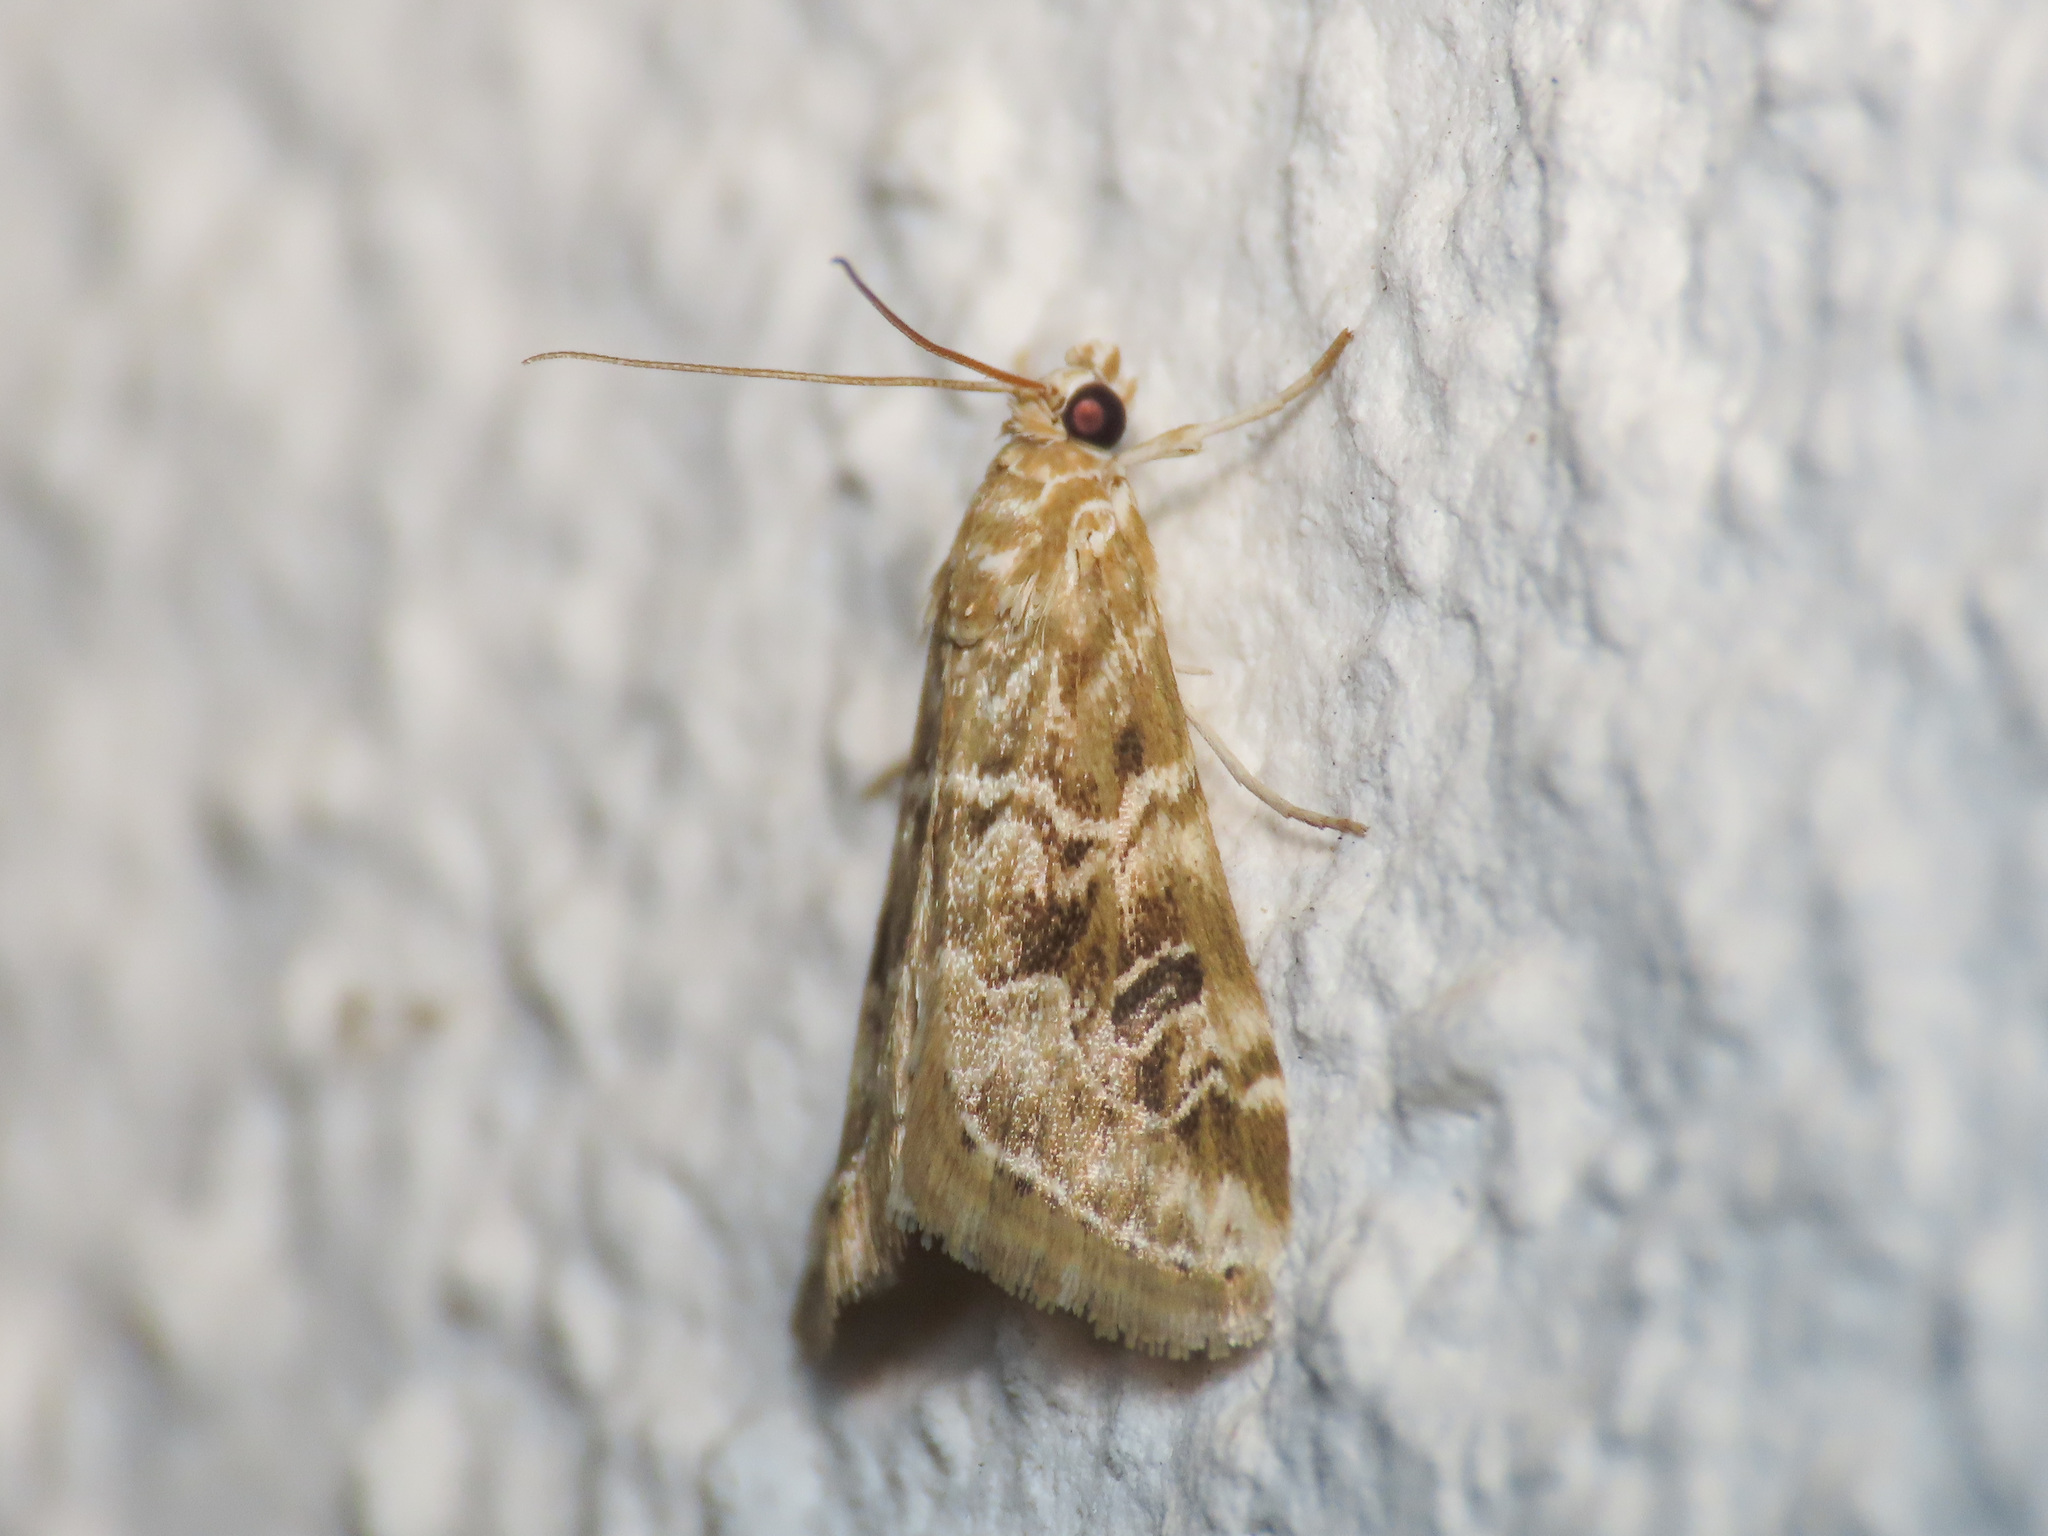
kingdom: Animalia
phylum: Arthropoda
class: Insecta
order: Lepidoptera
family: Crambidae
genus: Hellula
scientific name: Hellula undalis
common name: Cabbage webworm
